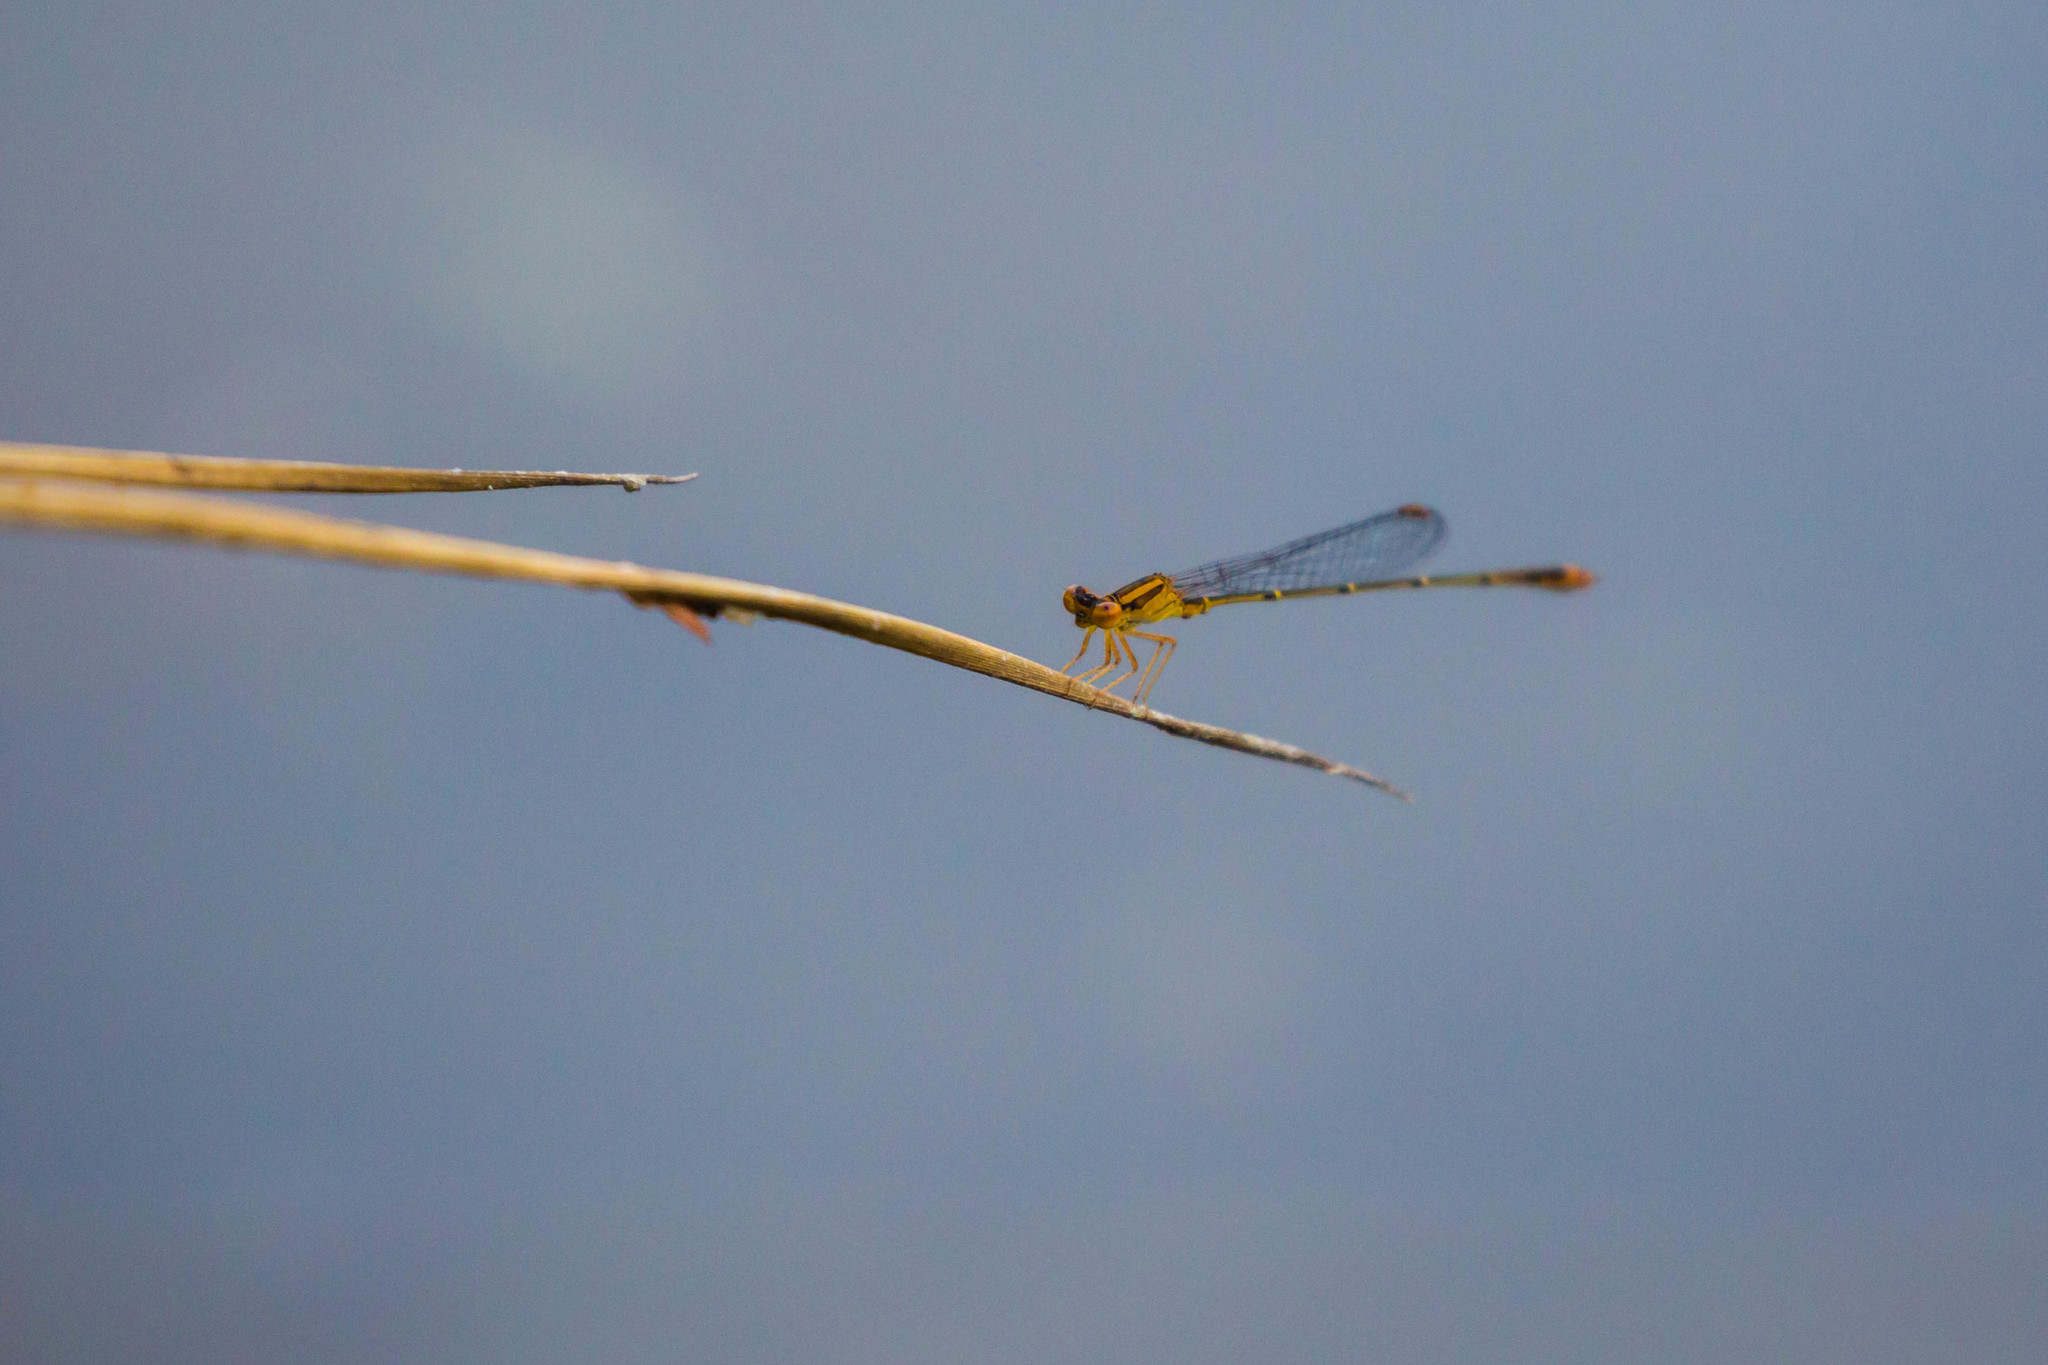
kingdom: Animalia
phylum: Arthropoda
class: Insecta
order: Odonata
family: Coenagrionidae
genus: Enallagma
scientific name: Enallagma signatum
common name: Orange bluet
